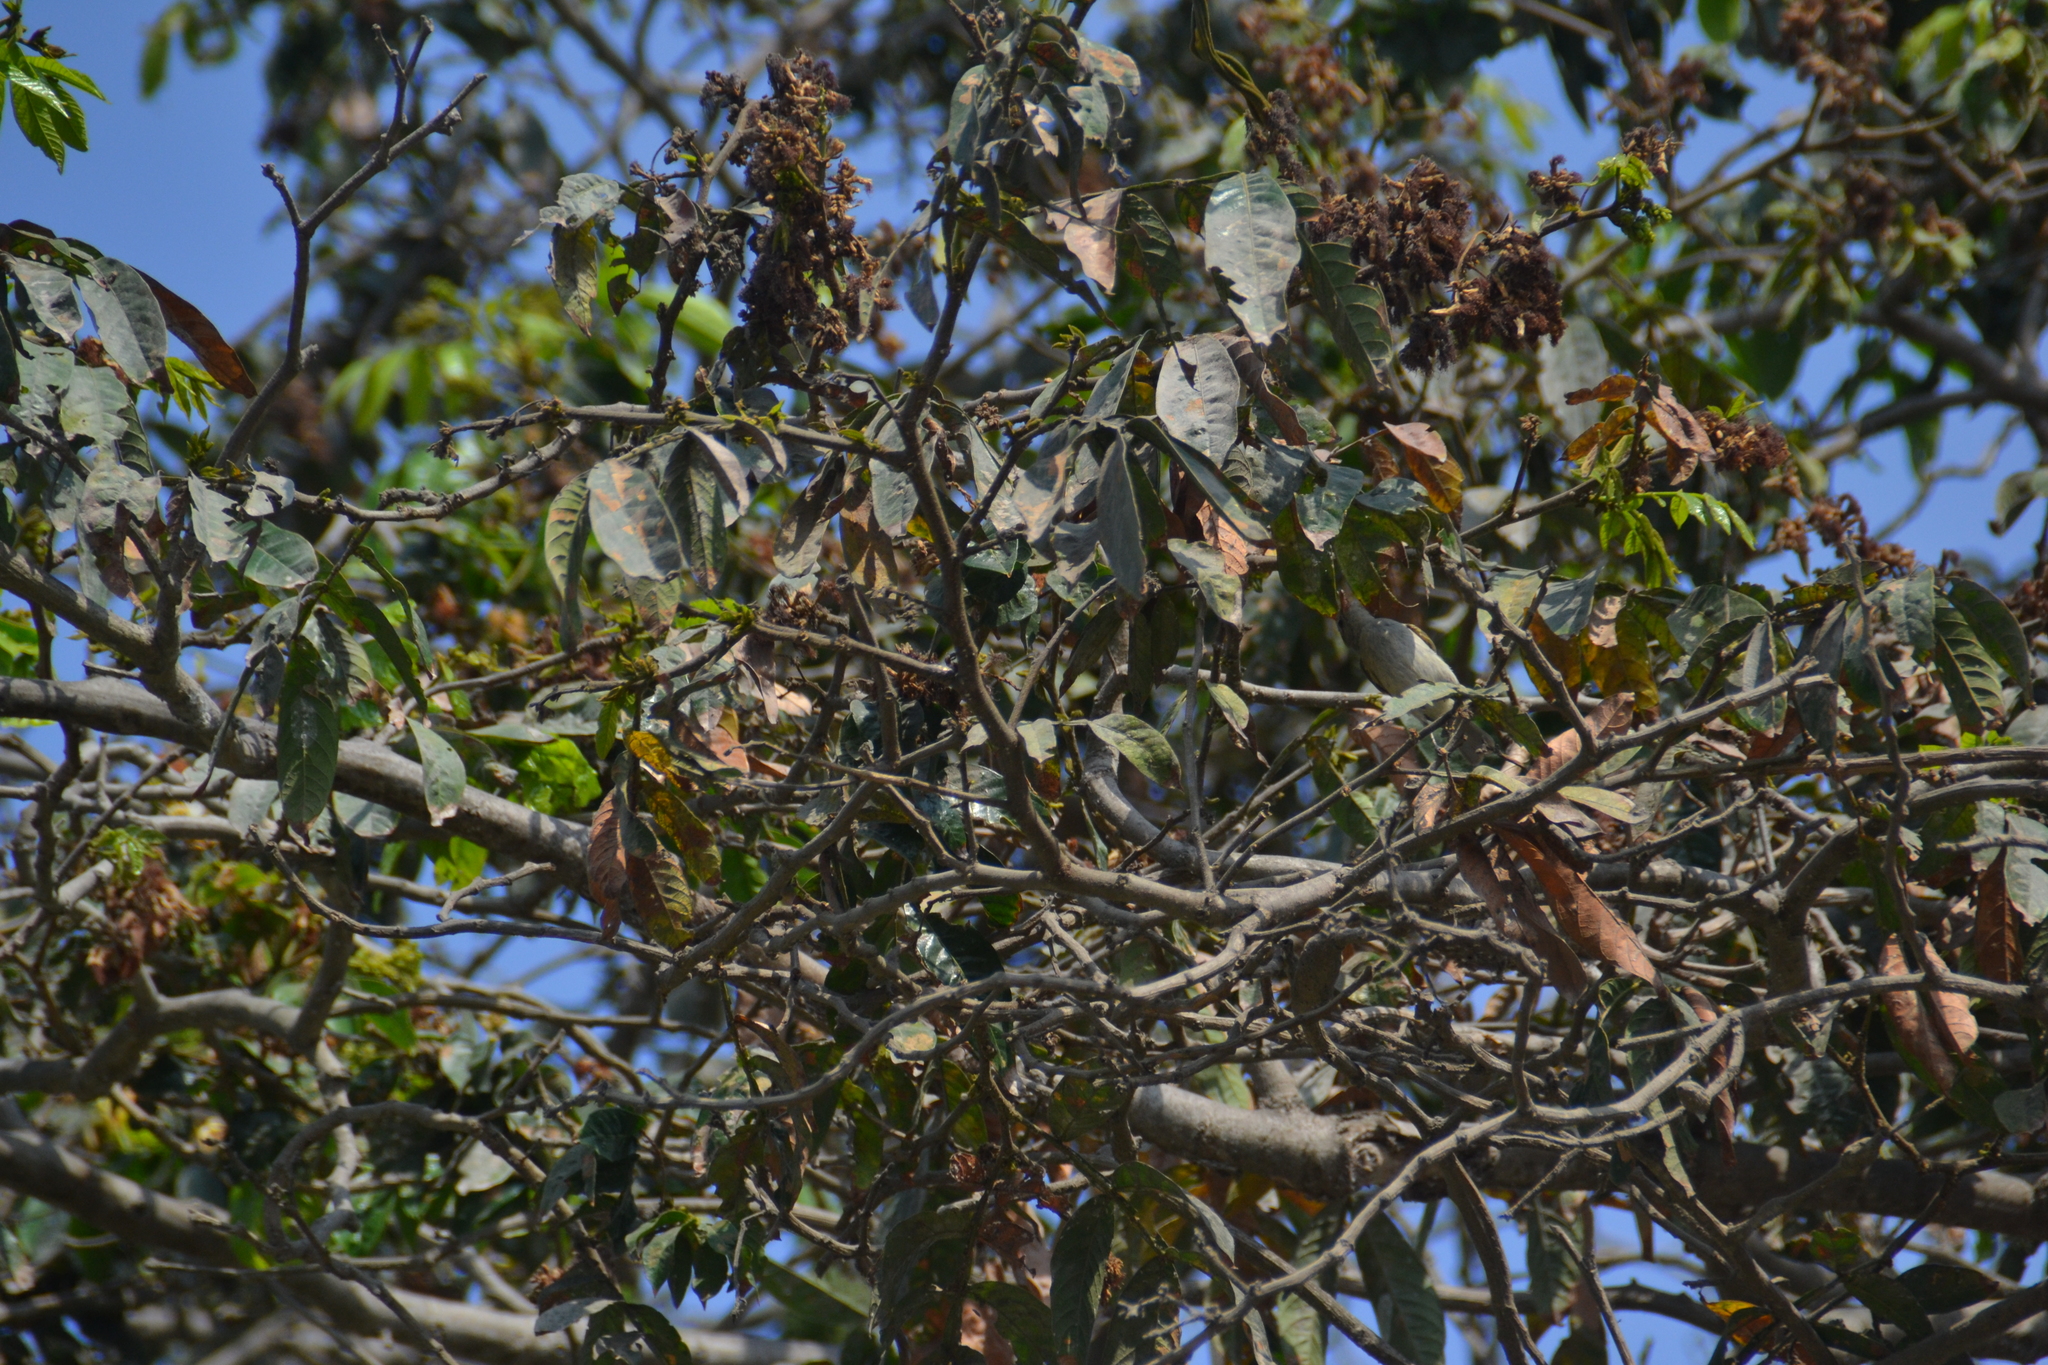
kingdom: Animalia
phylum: Chordata
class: Aves
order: Passeriformes
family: Tyrannidae
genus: Camptostoma
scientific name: Camptostoma obsoletum
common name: Southern beardless-tyrannulet
